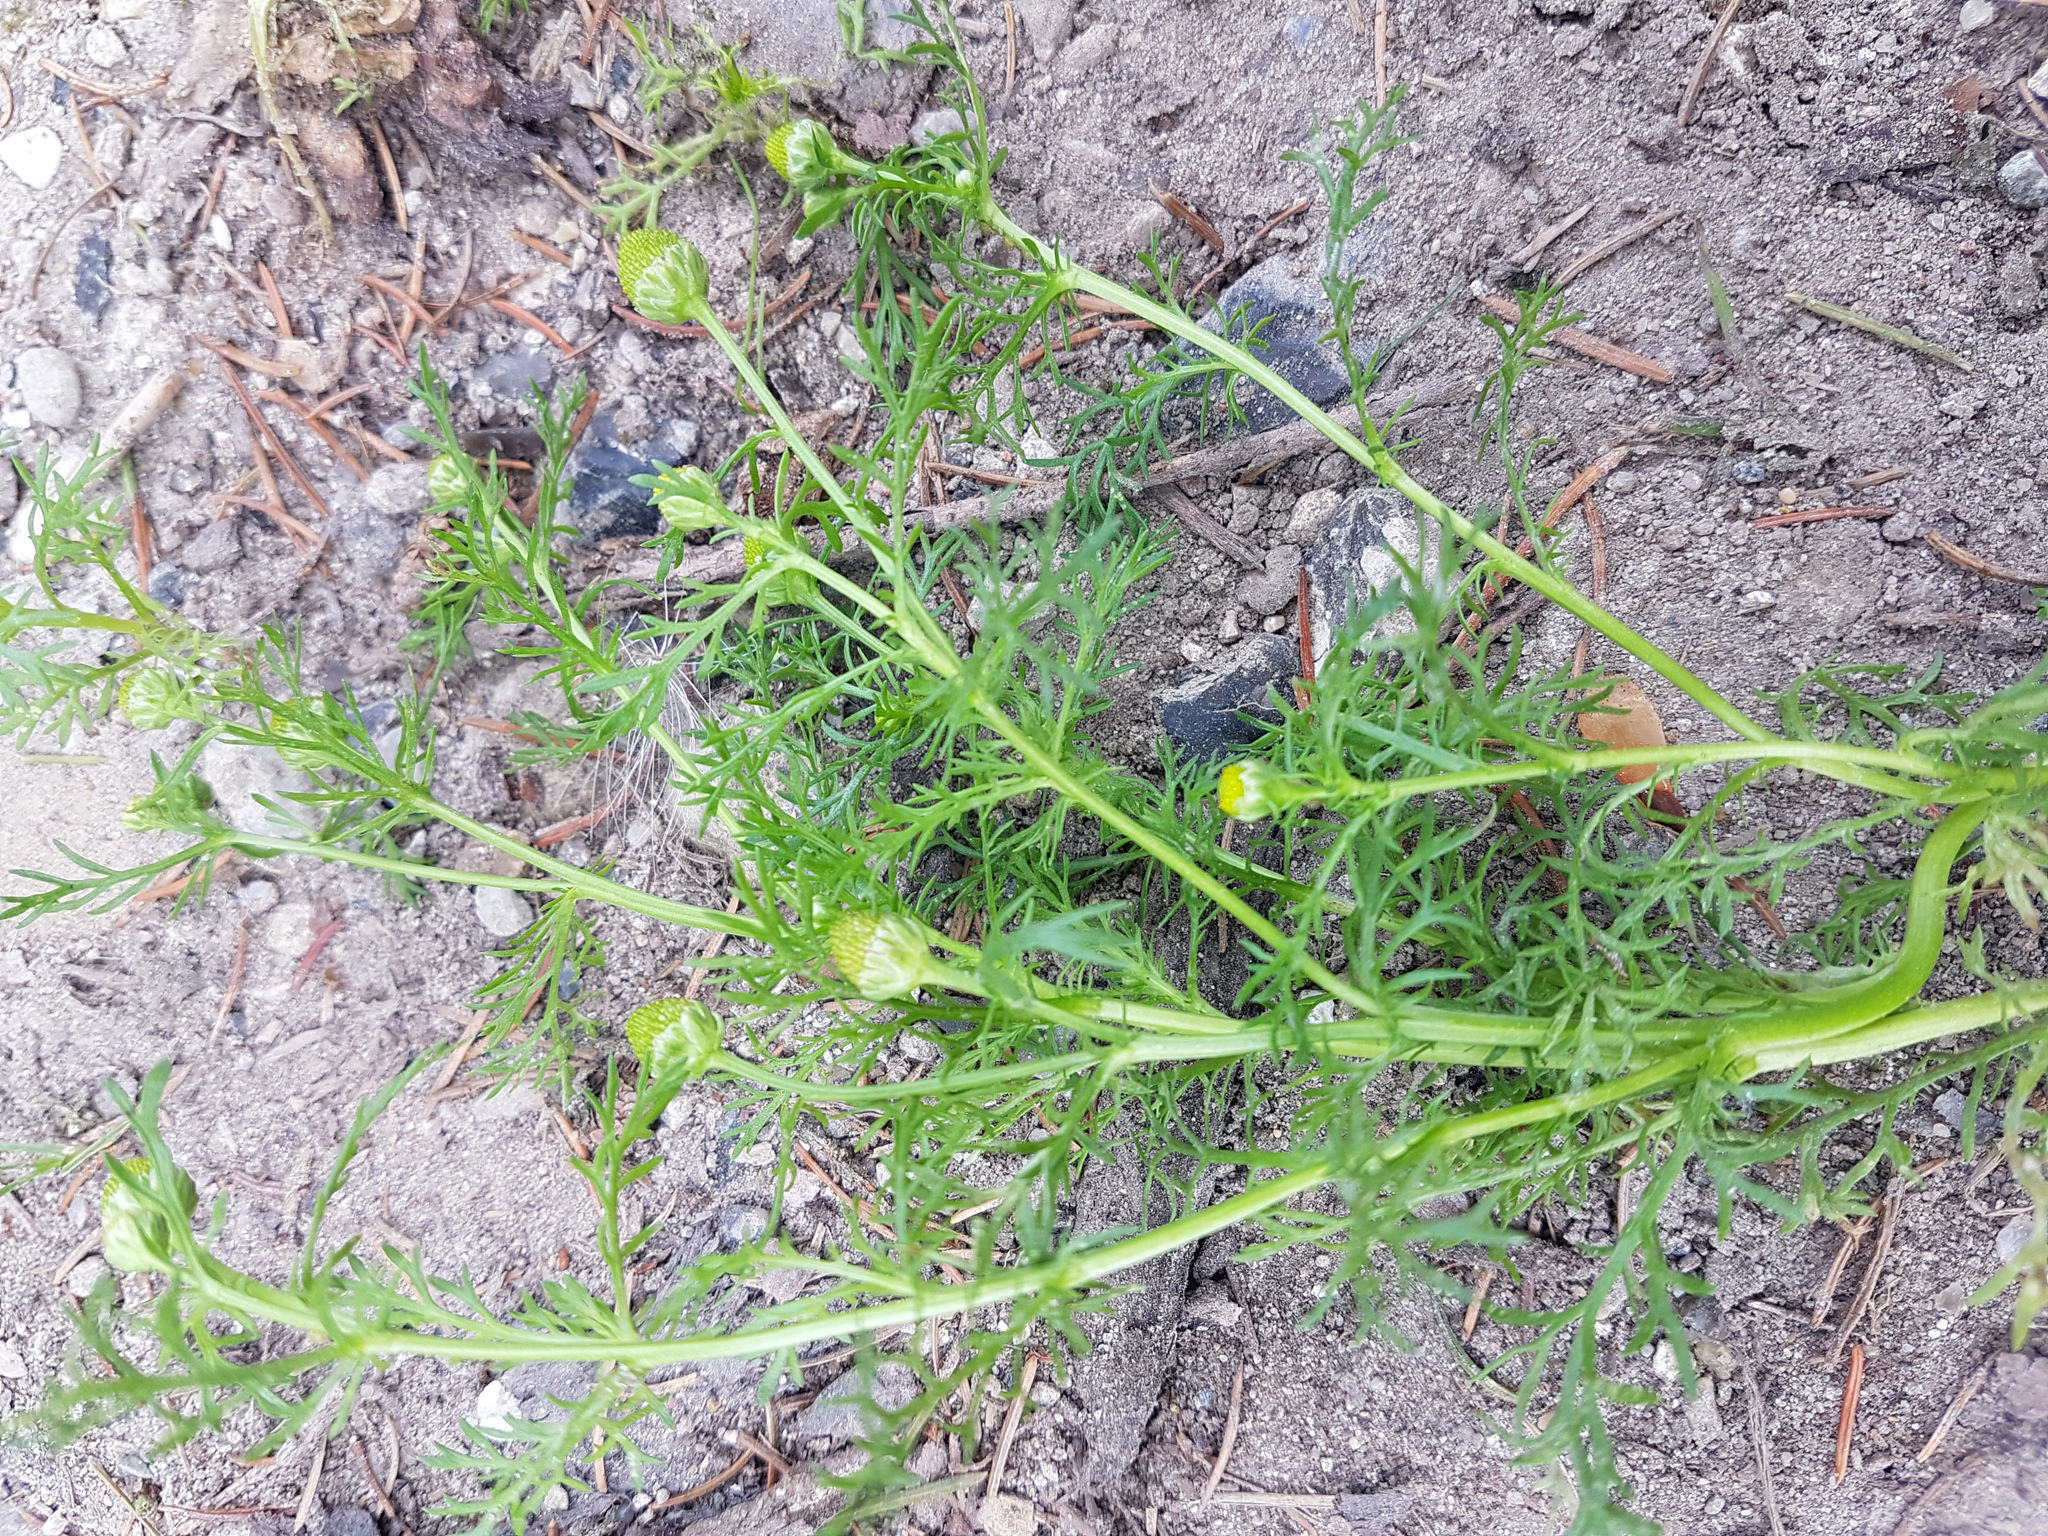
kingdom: Plantae
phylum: Tracheophyta
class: Magnoliopsida
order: Asterales
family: Asteraceae
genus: Matricaria
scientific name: Matricaria discoidea
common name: Disc mayweed
